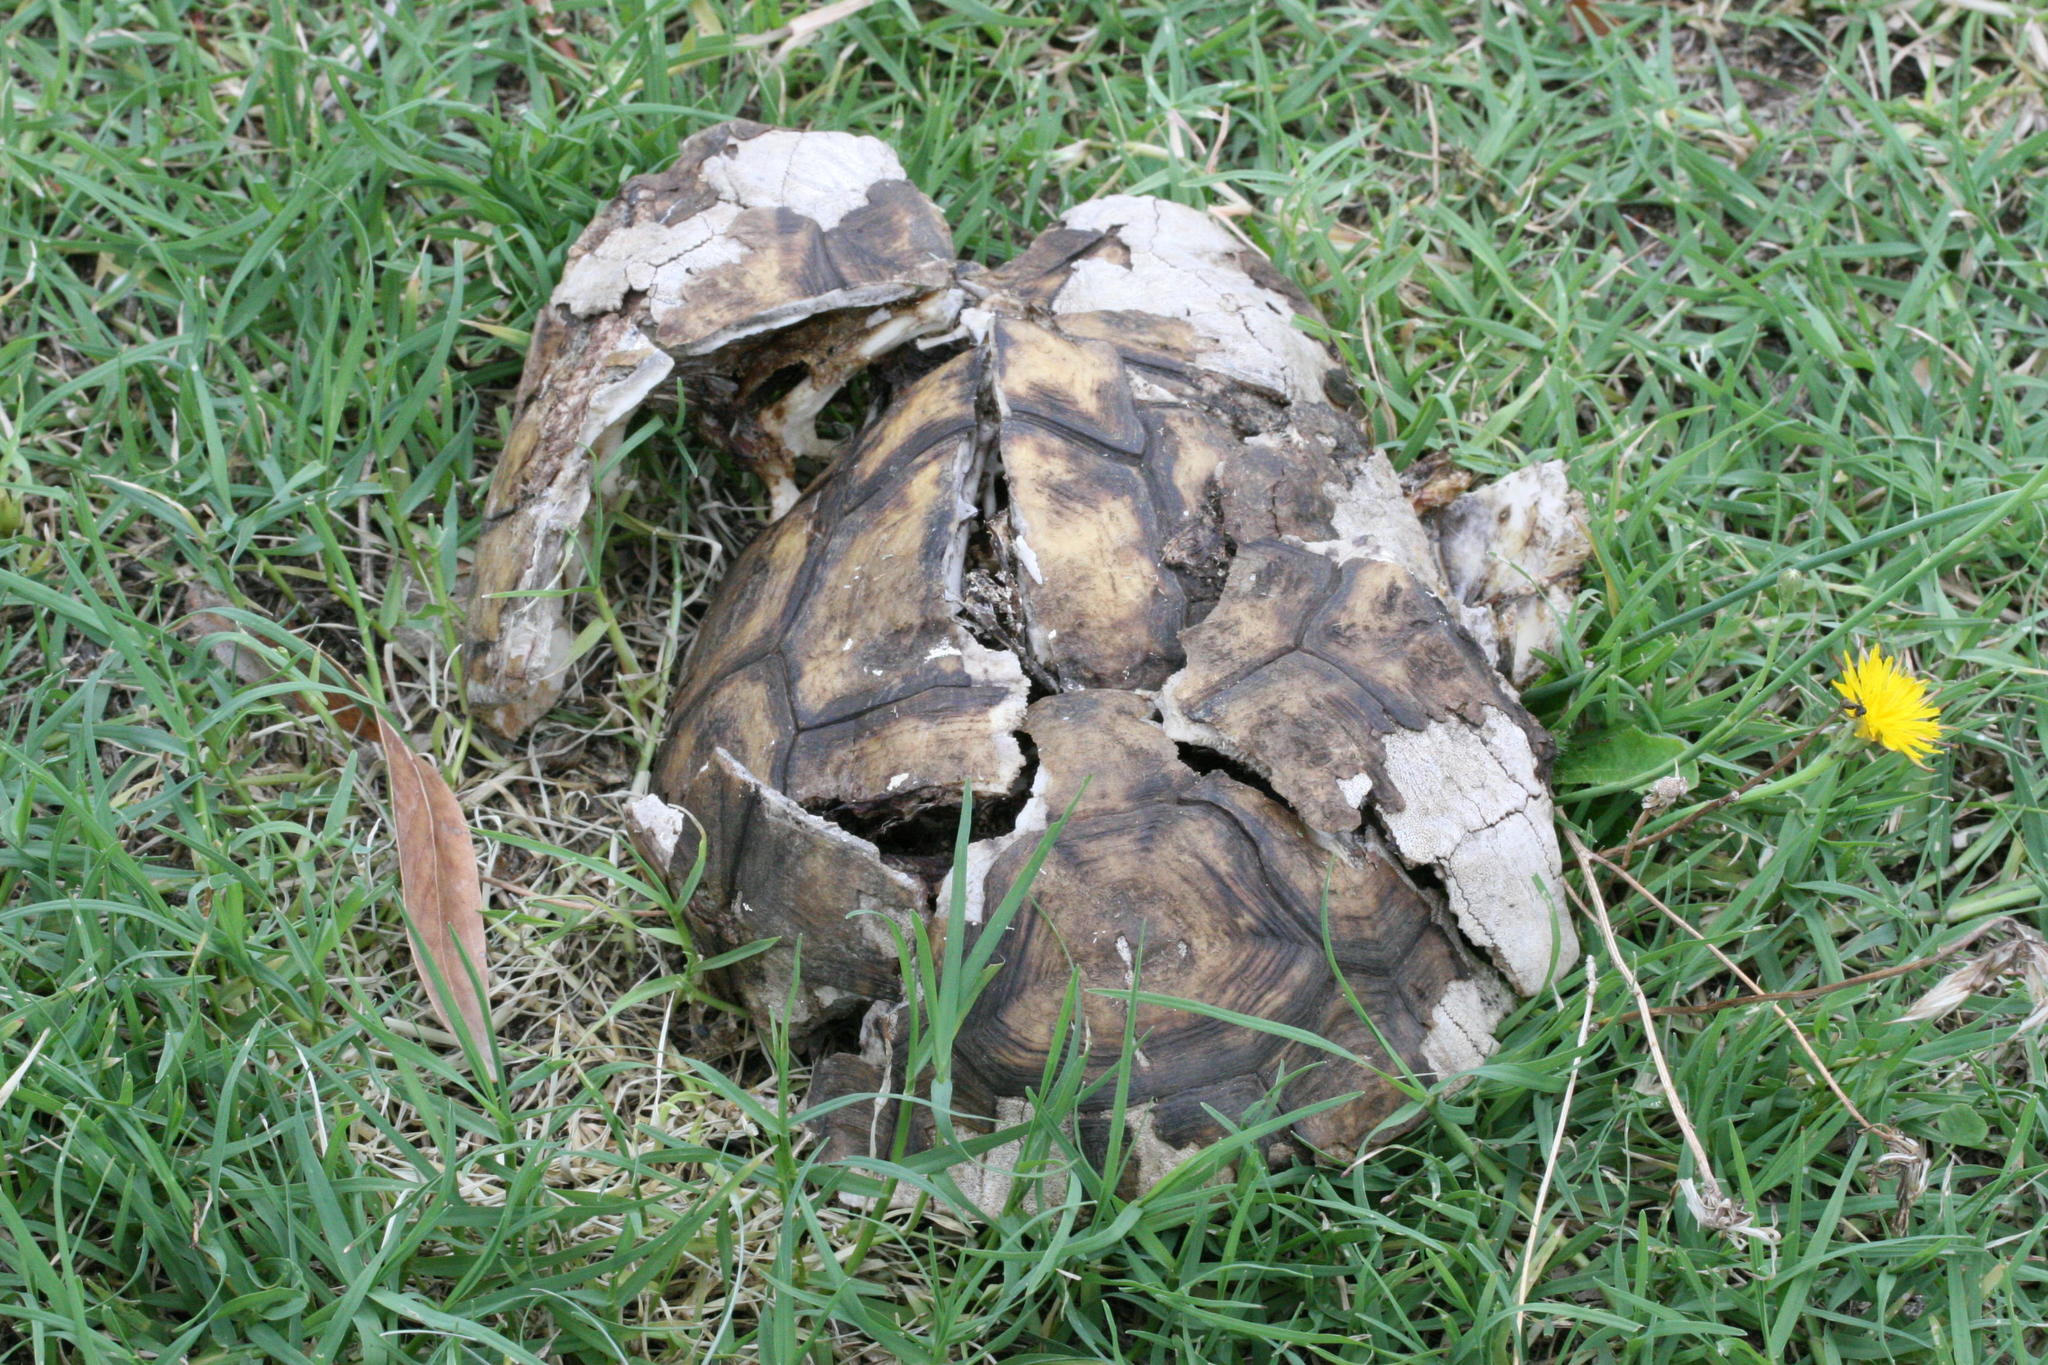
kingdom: Animalia
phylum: Chordata
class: Testudines
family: Testudinidae
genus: Chersina
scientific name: Chersina angulata
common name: South african bowsprit tortoise
